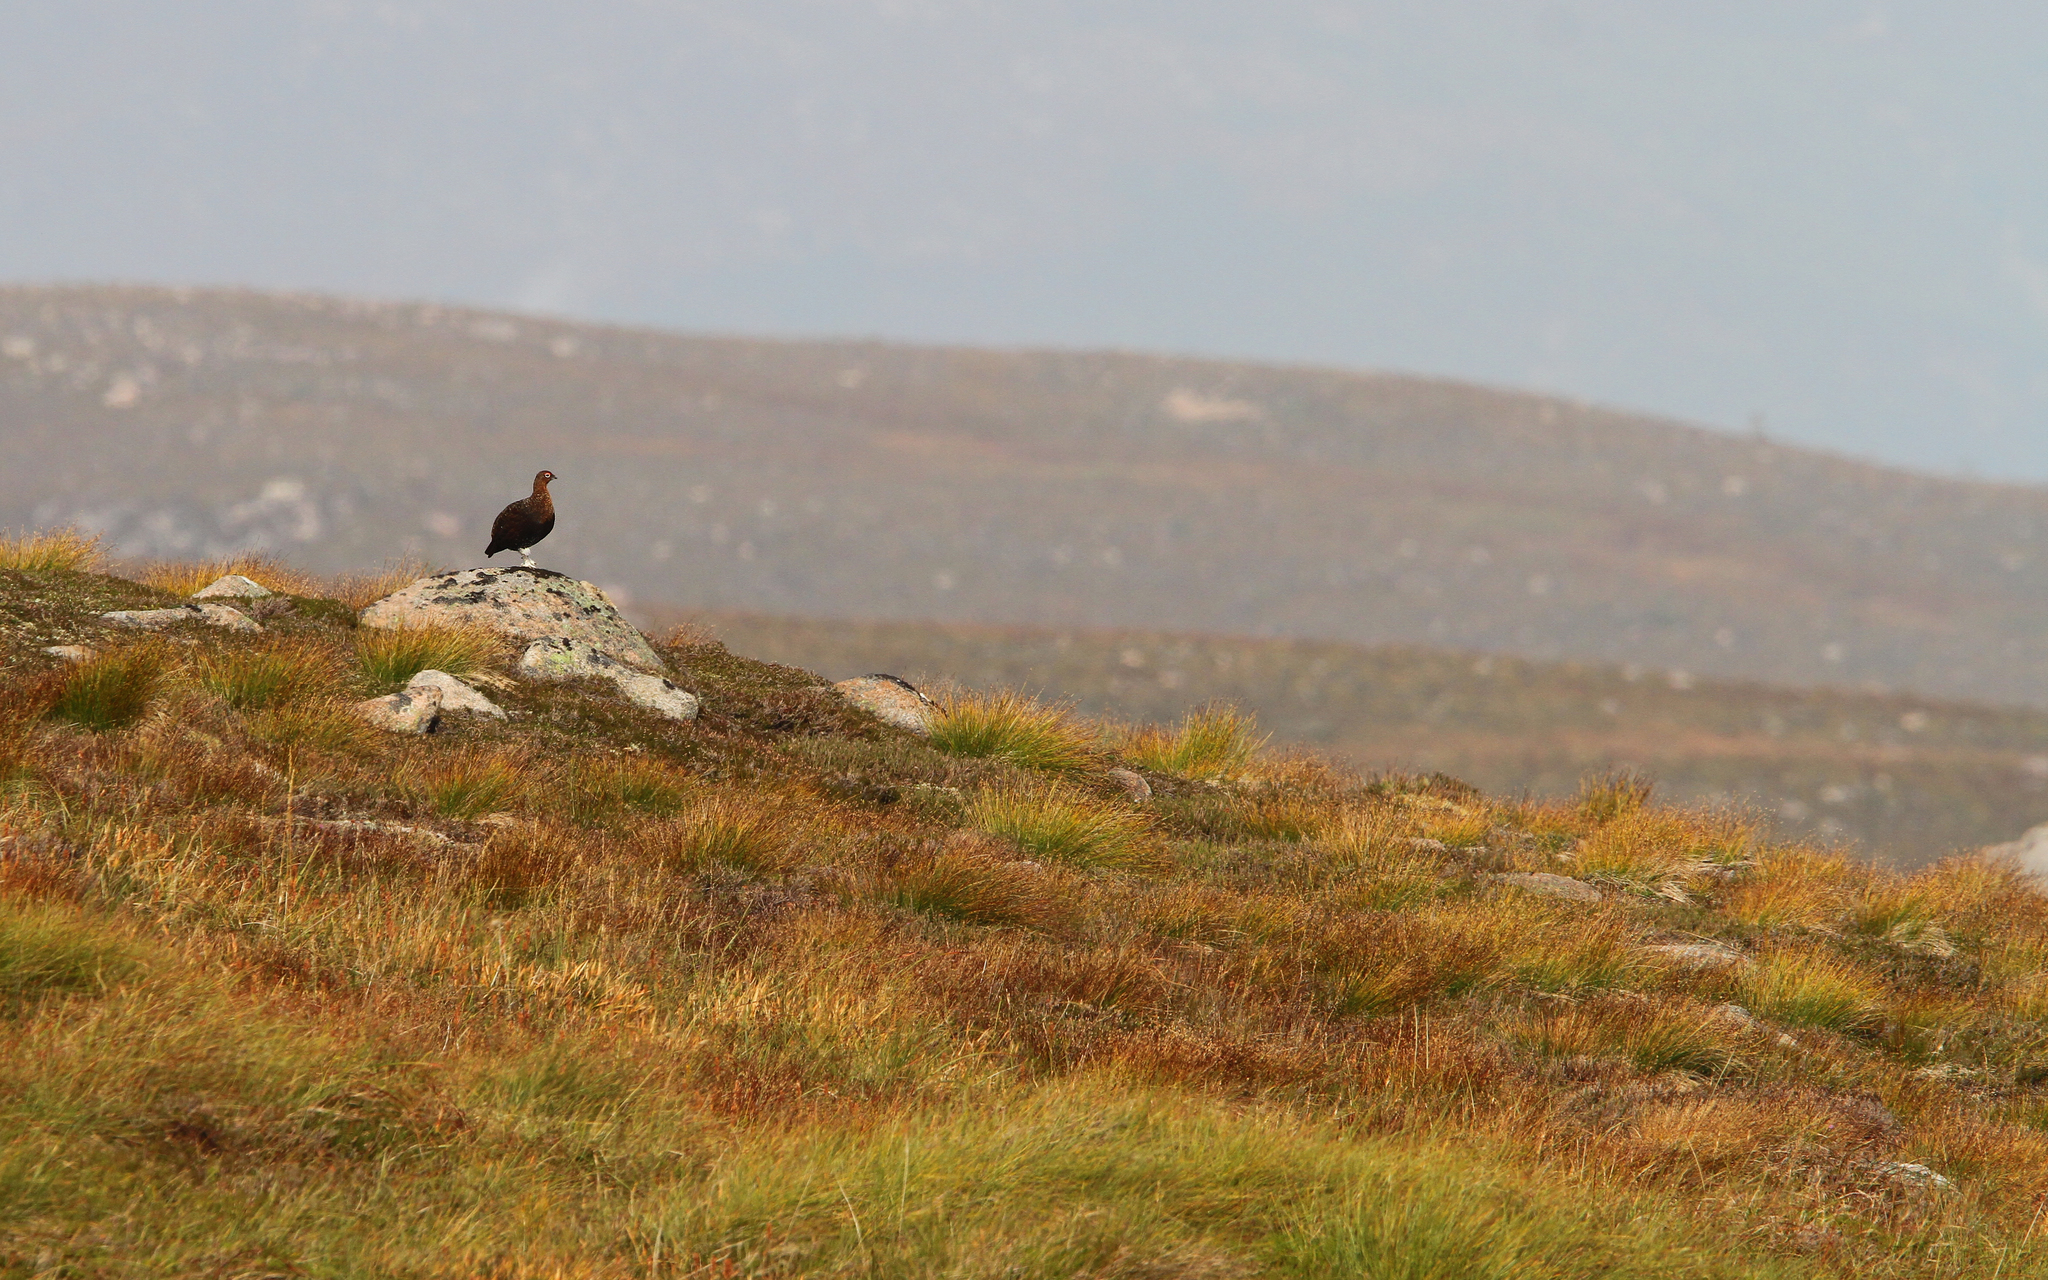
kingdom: Animalia
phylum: Chordata
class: Aves
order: Galliformes
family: Phasianidae
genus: Lagopus
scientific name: Lagopus lagopus
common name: Willow ptarmigan
